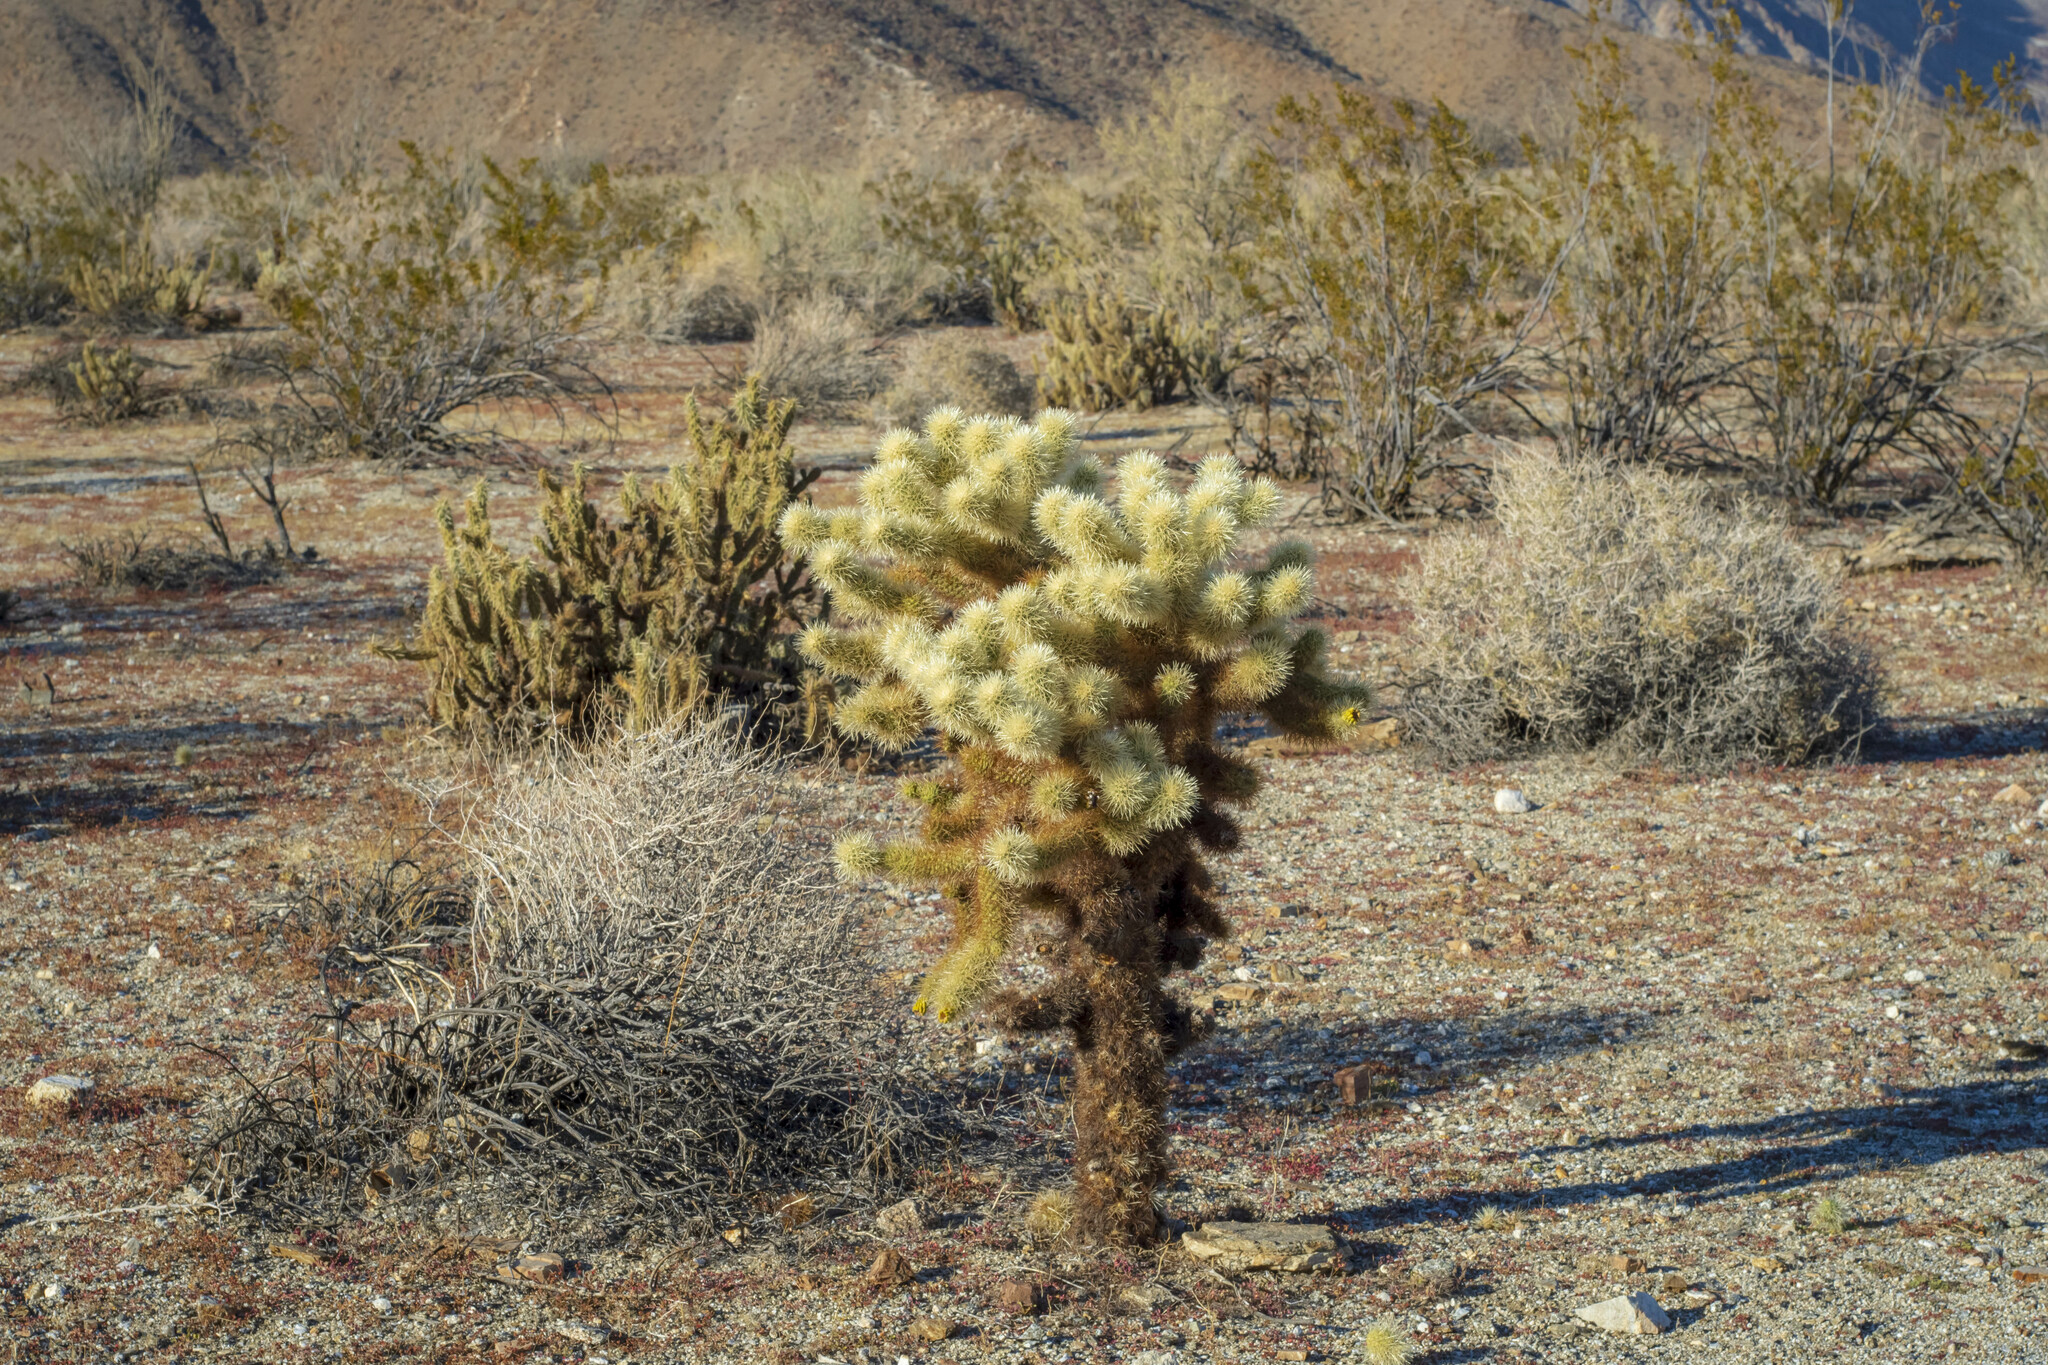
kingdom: Plantae
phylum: Tracheophyta
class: Magnoliopsida
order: Caryophyllales
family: Cactaceae
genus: Cylindropuntia
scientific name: Cylindropuntia fosbergii
